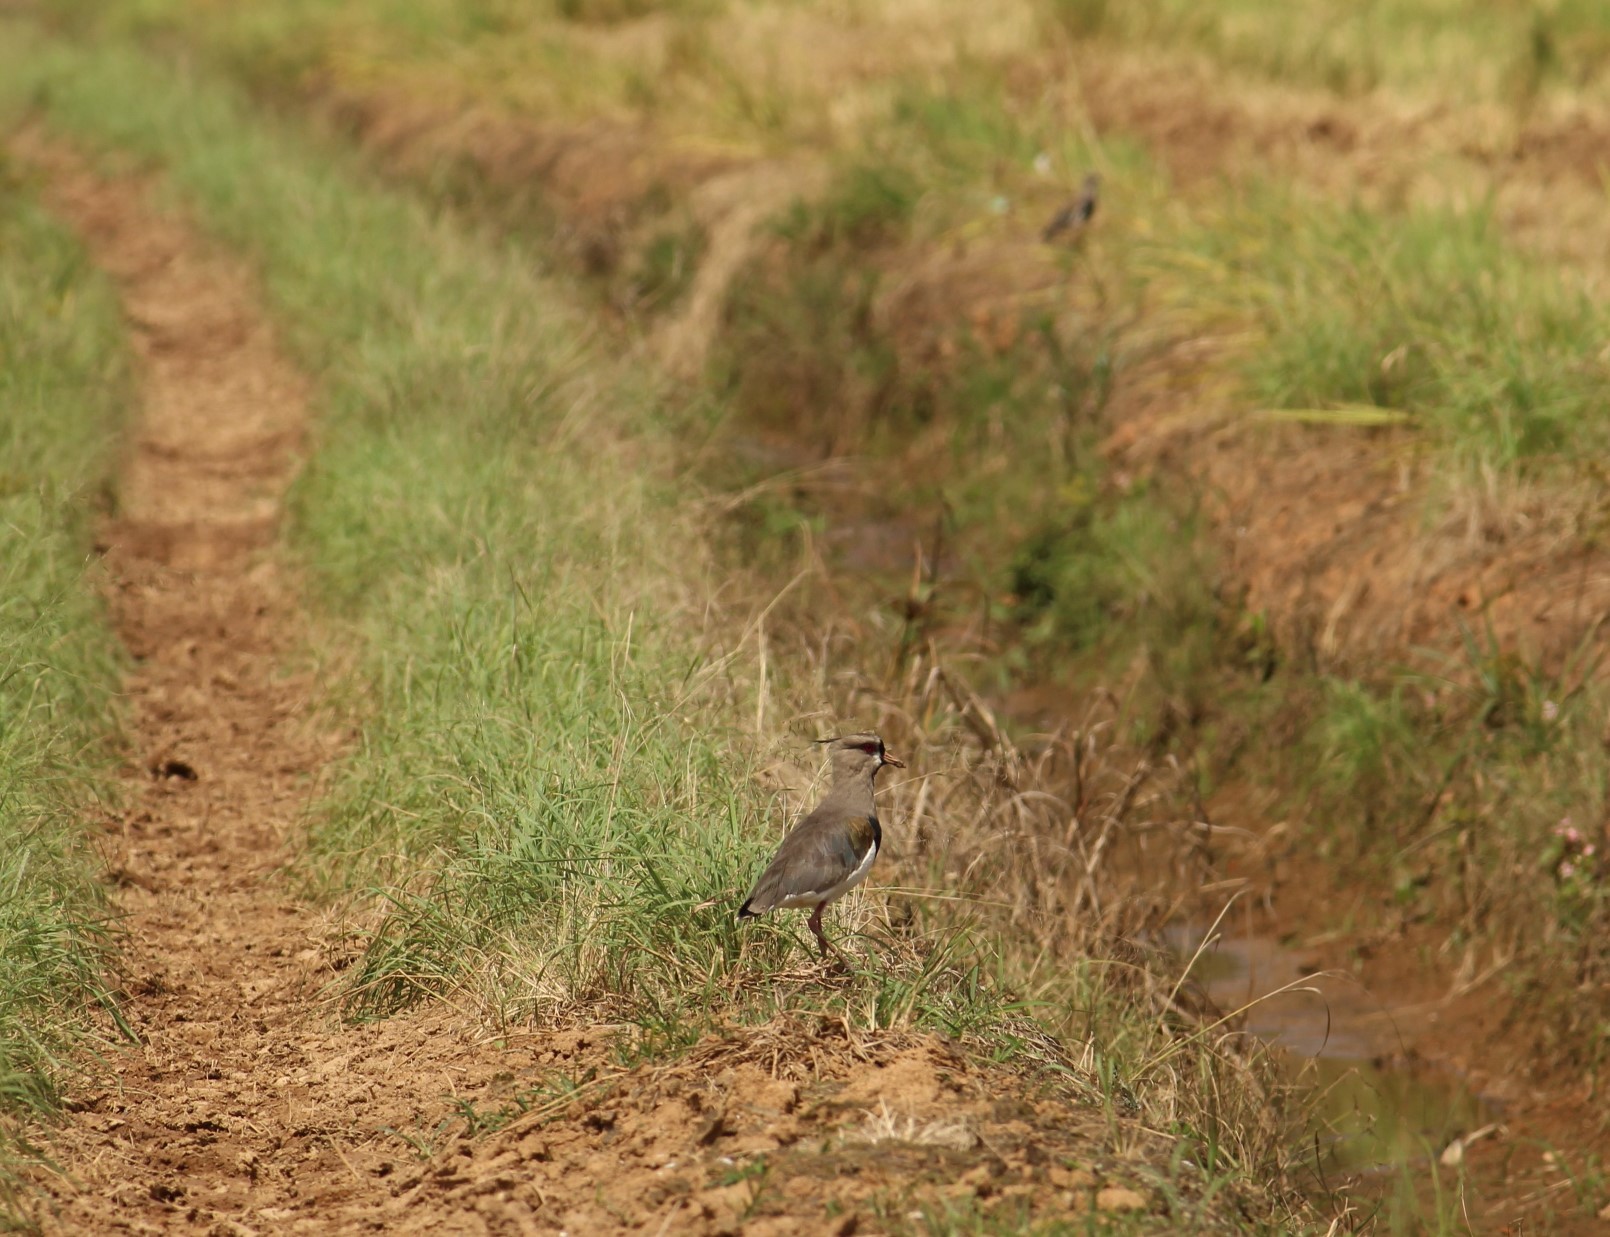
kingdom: Animalia
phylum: Chordata
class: Aves
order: Charadriiformes
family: Charadriidae
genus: Vanellus
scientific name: Vanellus chilensis
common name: Southern lapwing
